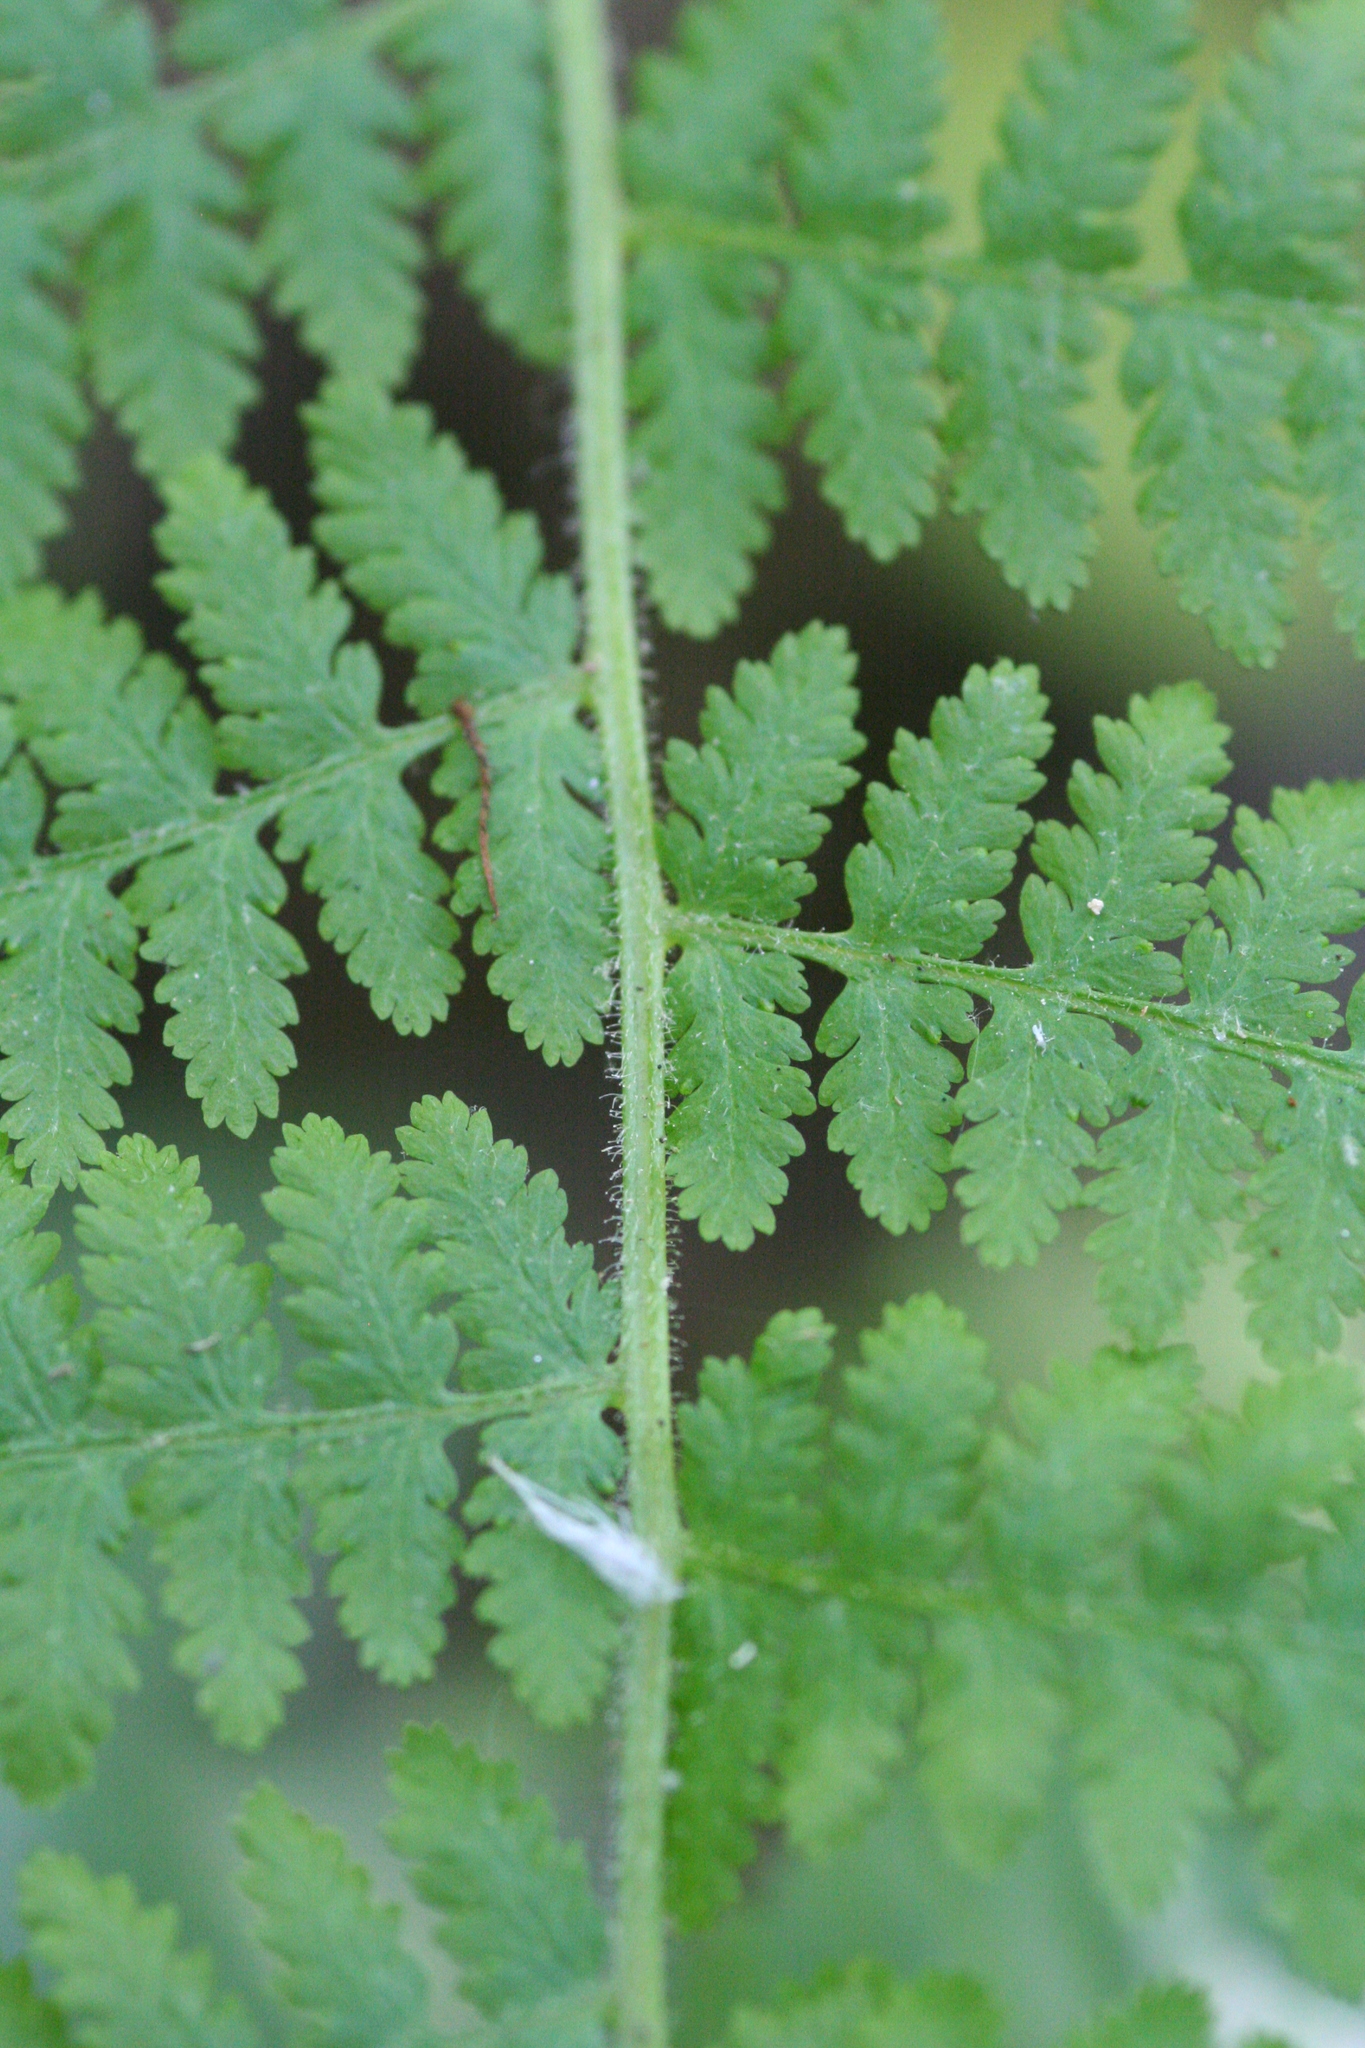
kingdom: Plantae
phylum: Tracheophyta
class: Polypodiopsida
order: Polypodiales
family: Dennstaedtiaceae
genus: Sitobolium
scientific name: Sitobolium punctilobum
